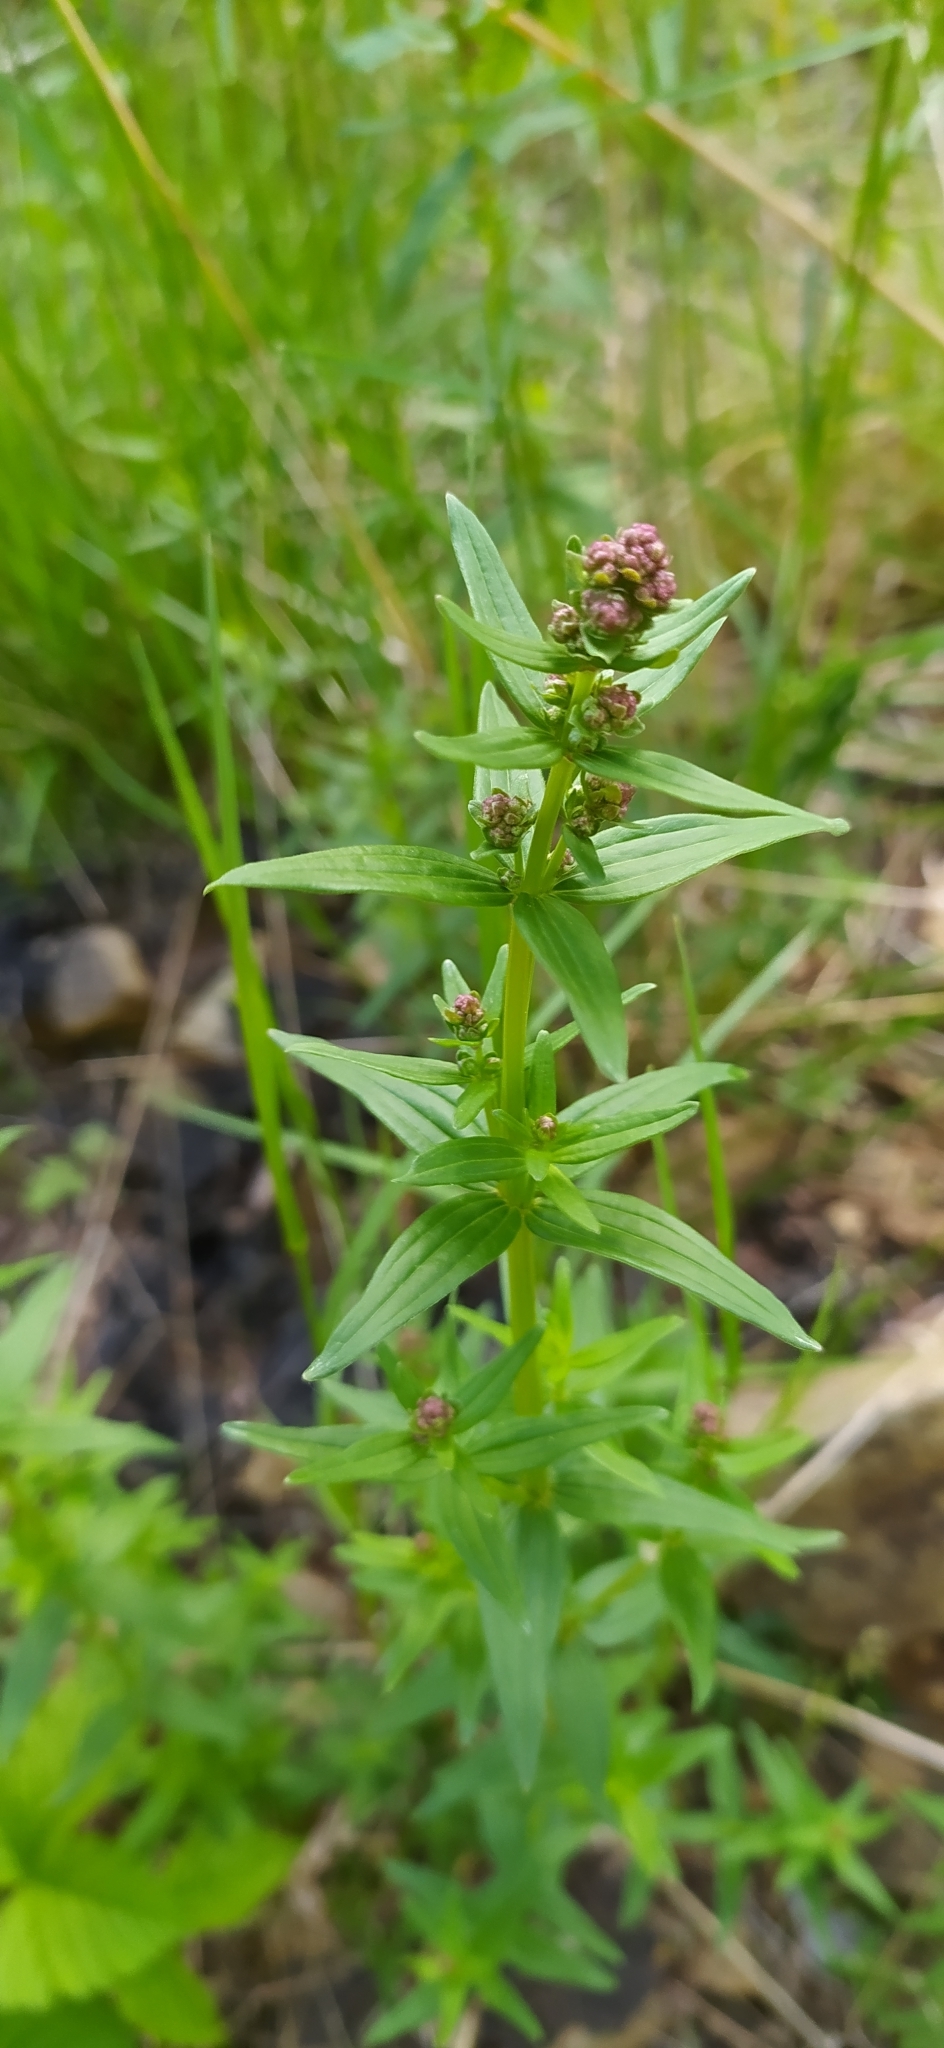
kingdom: Plantae
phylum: Tracheophyta
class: Magnoliopsida
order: Gentianales
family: Rubiaceae
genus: Galium
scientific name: Galium boreale
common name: Northern bedstraw
